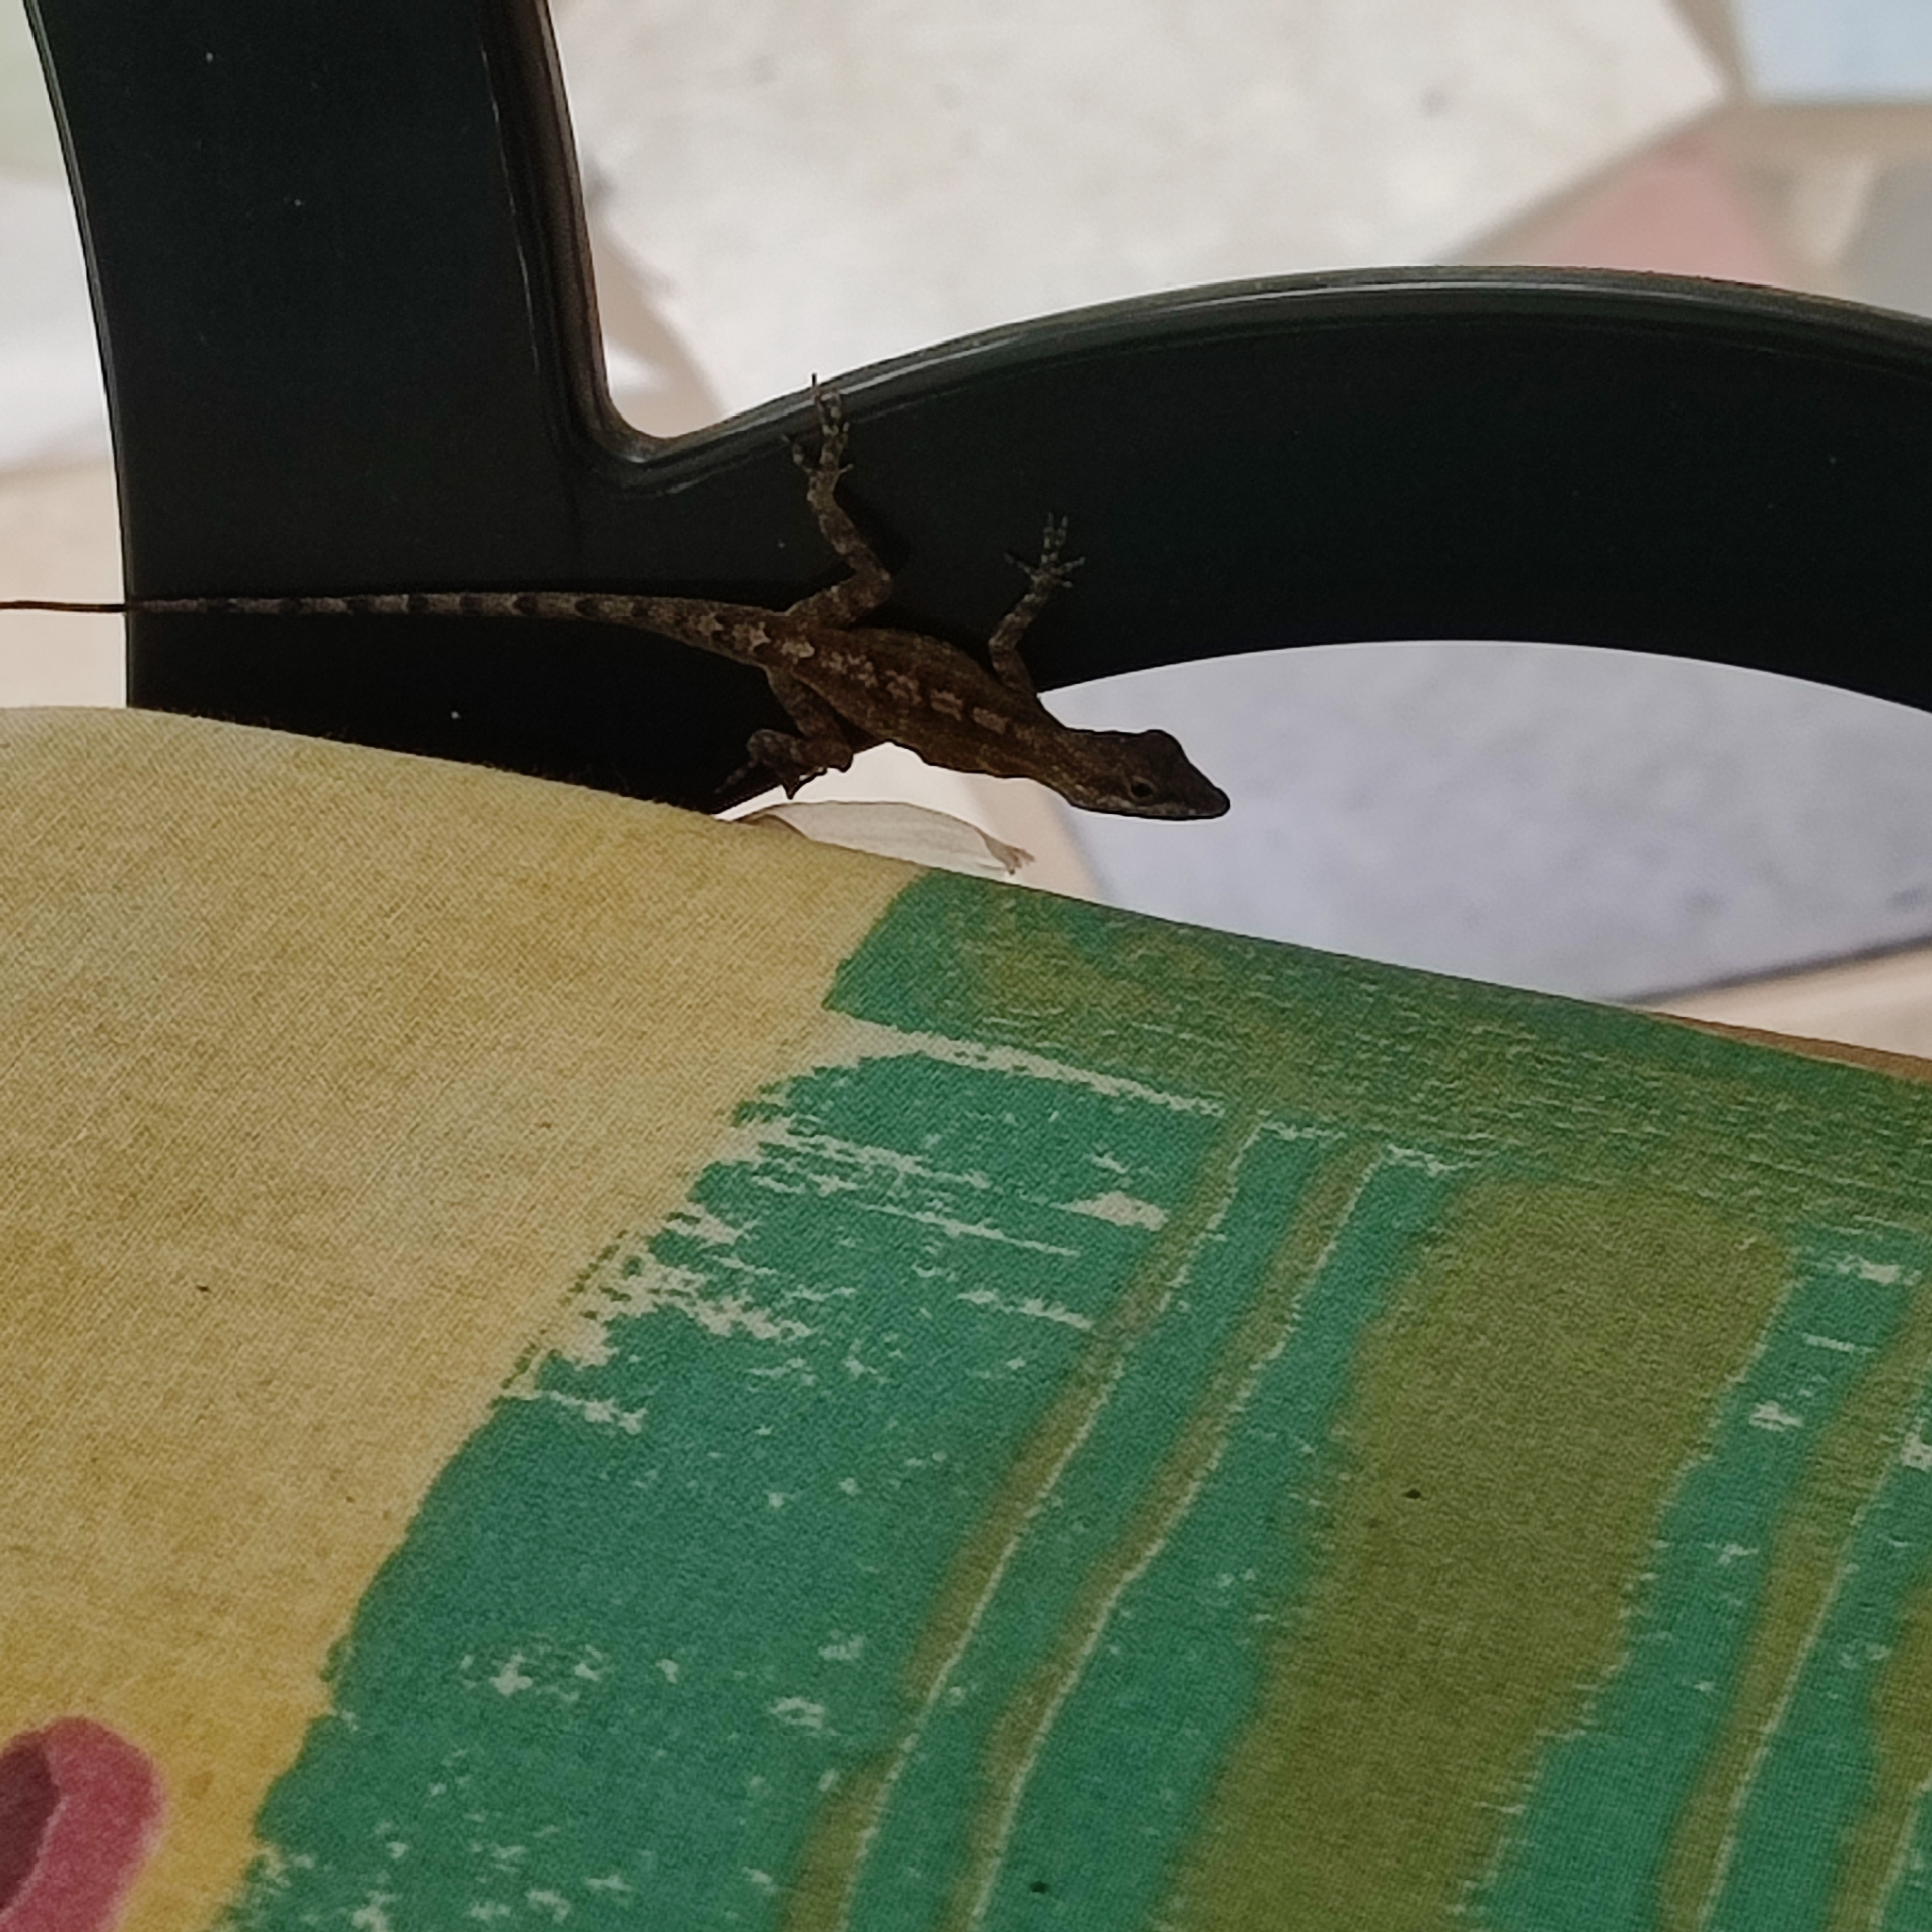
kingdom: Animalia
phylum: Chordata
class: Squamata
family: Dactyloidae
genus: Anolis
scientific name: Anolis lividus
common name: Montserrat anole
